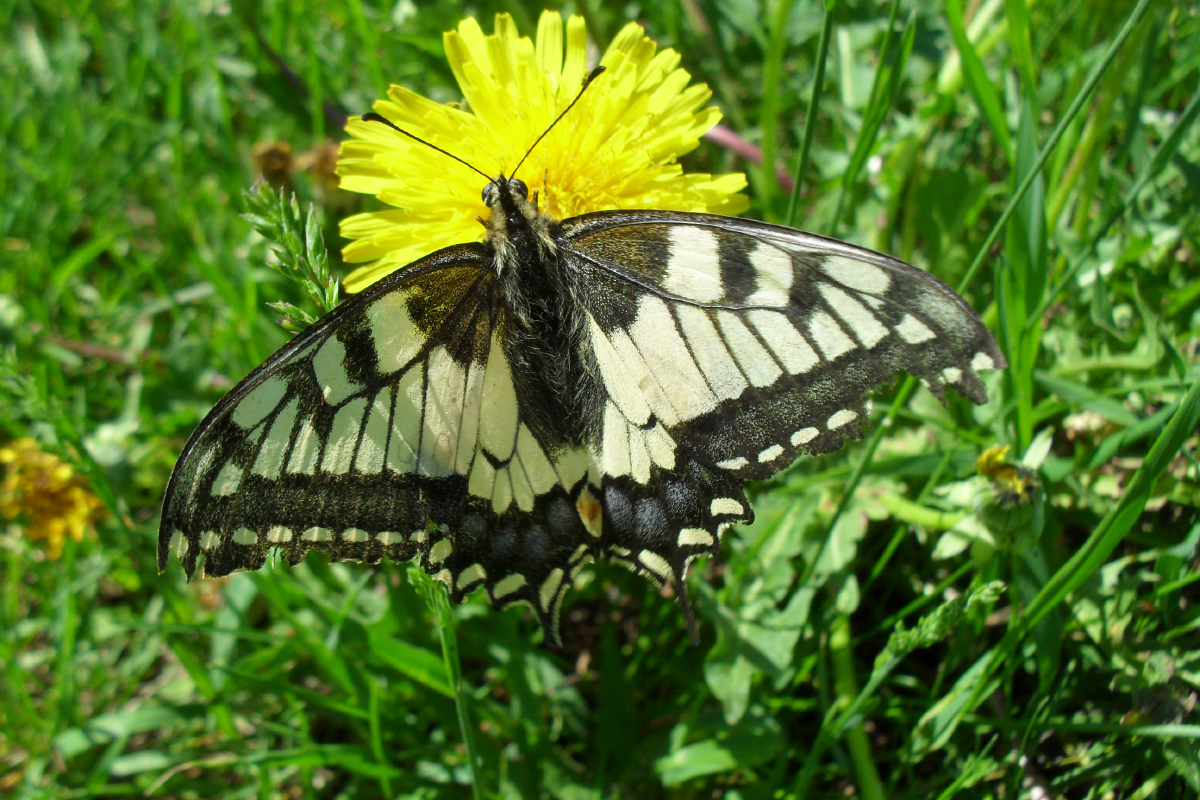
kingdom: Animalia
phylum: Arthropoda
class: Insecta
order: Lepidoptera
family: Papilionidae
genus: Papilio
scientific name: Papilio machaon
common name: Swallowtail
